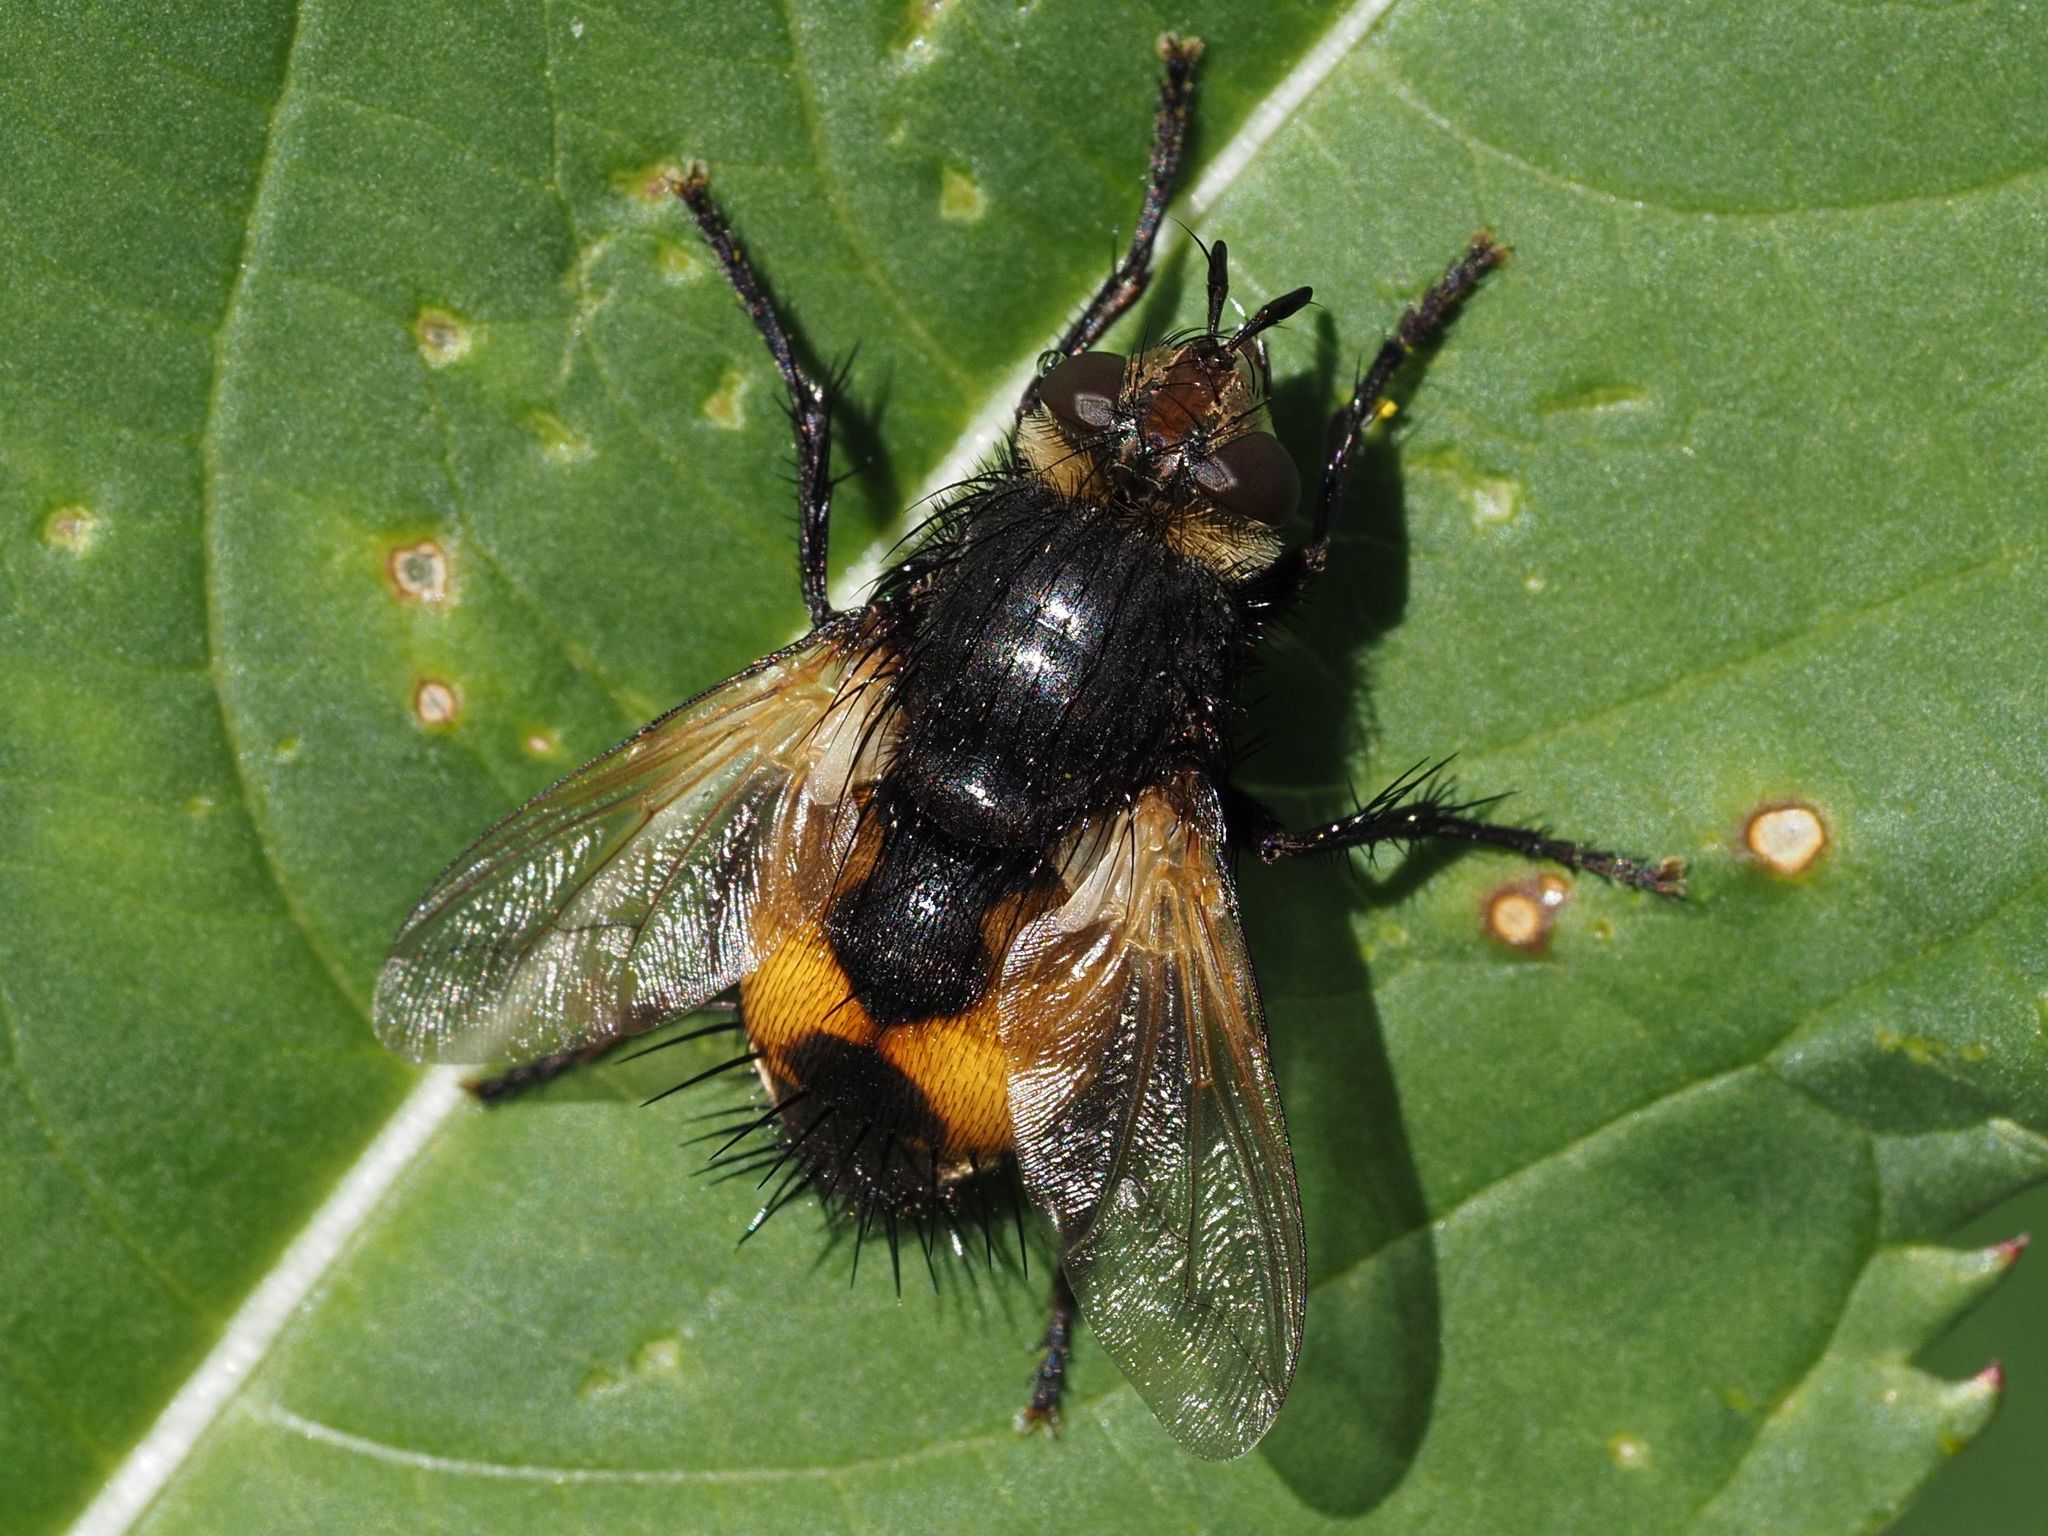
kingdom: Animalia
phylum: Arthropoda
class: Insecta
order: Diptera
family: Tachinidae
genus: Nowickia
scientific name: Nowickia ferox
